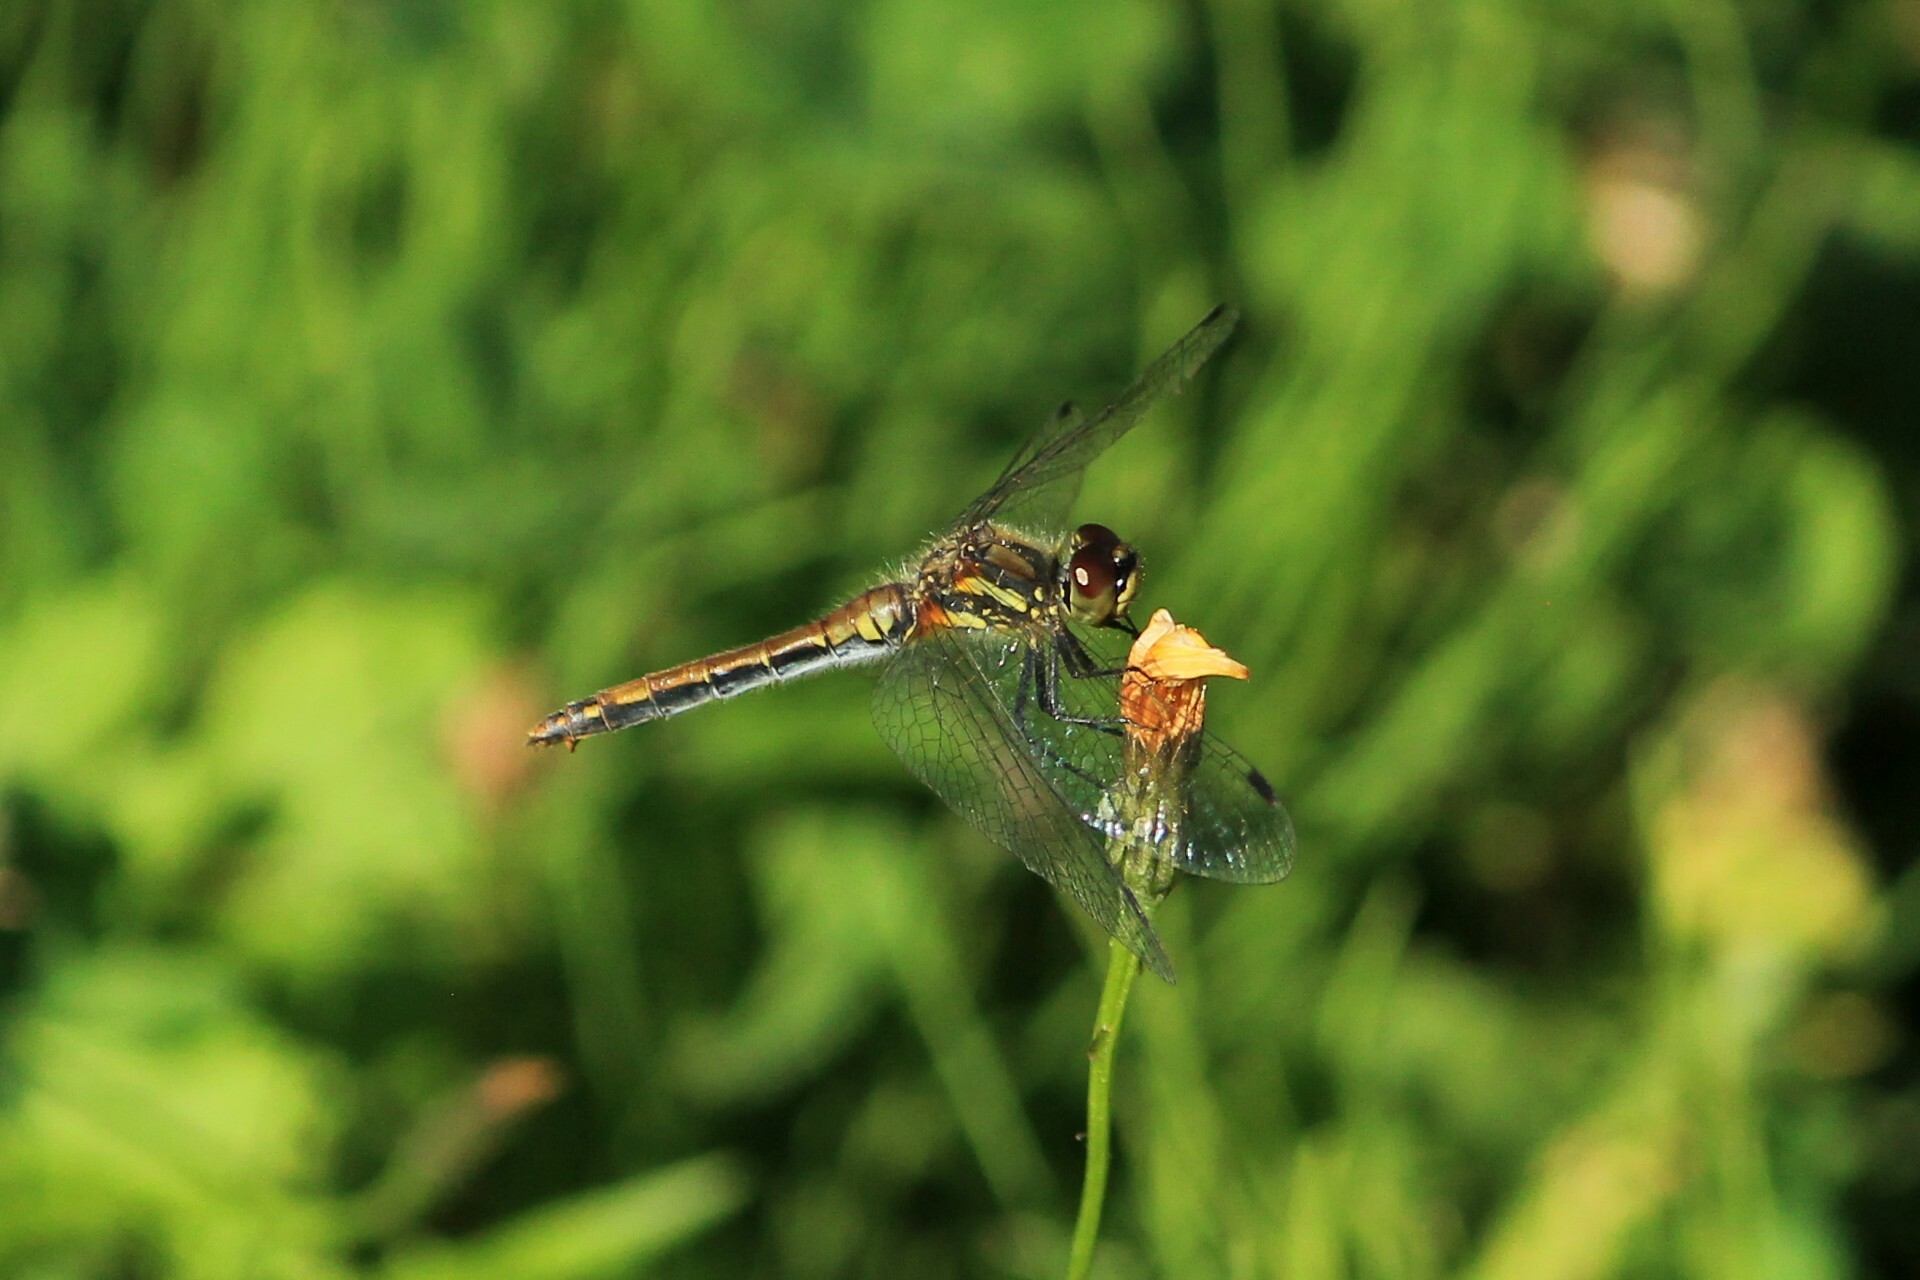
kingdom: Animalia
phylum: Arthropoda
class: Insecta
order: Odonata
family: Libellulidae
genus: Sympetrum
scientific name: Sympetrum danae
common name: Black darter
